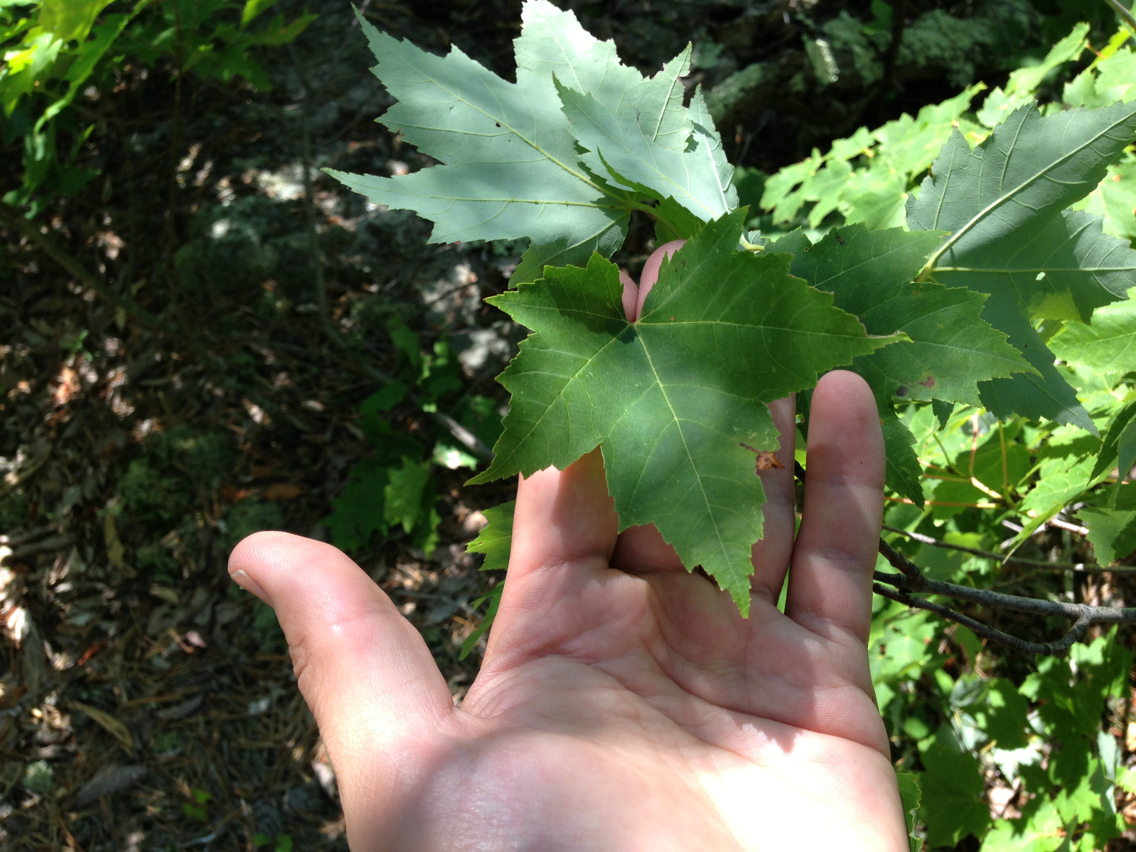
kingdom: Plantae
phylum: Tracheophyta
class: Magnoliopsida
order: Sapindales
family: Sapindaceae
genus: Acer
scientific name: Acer rubrum
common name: Red maple
